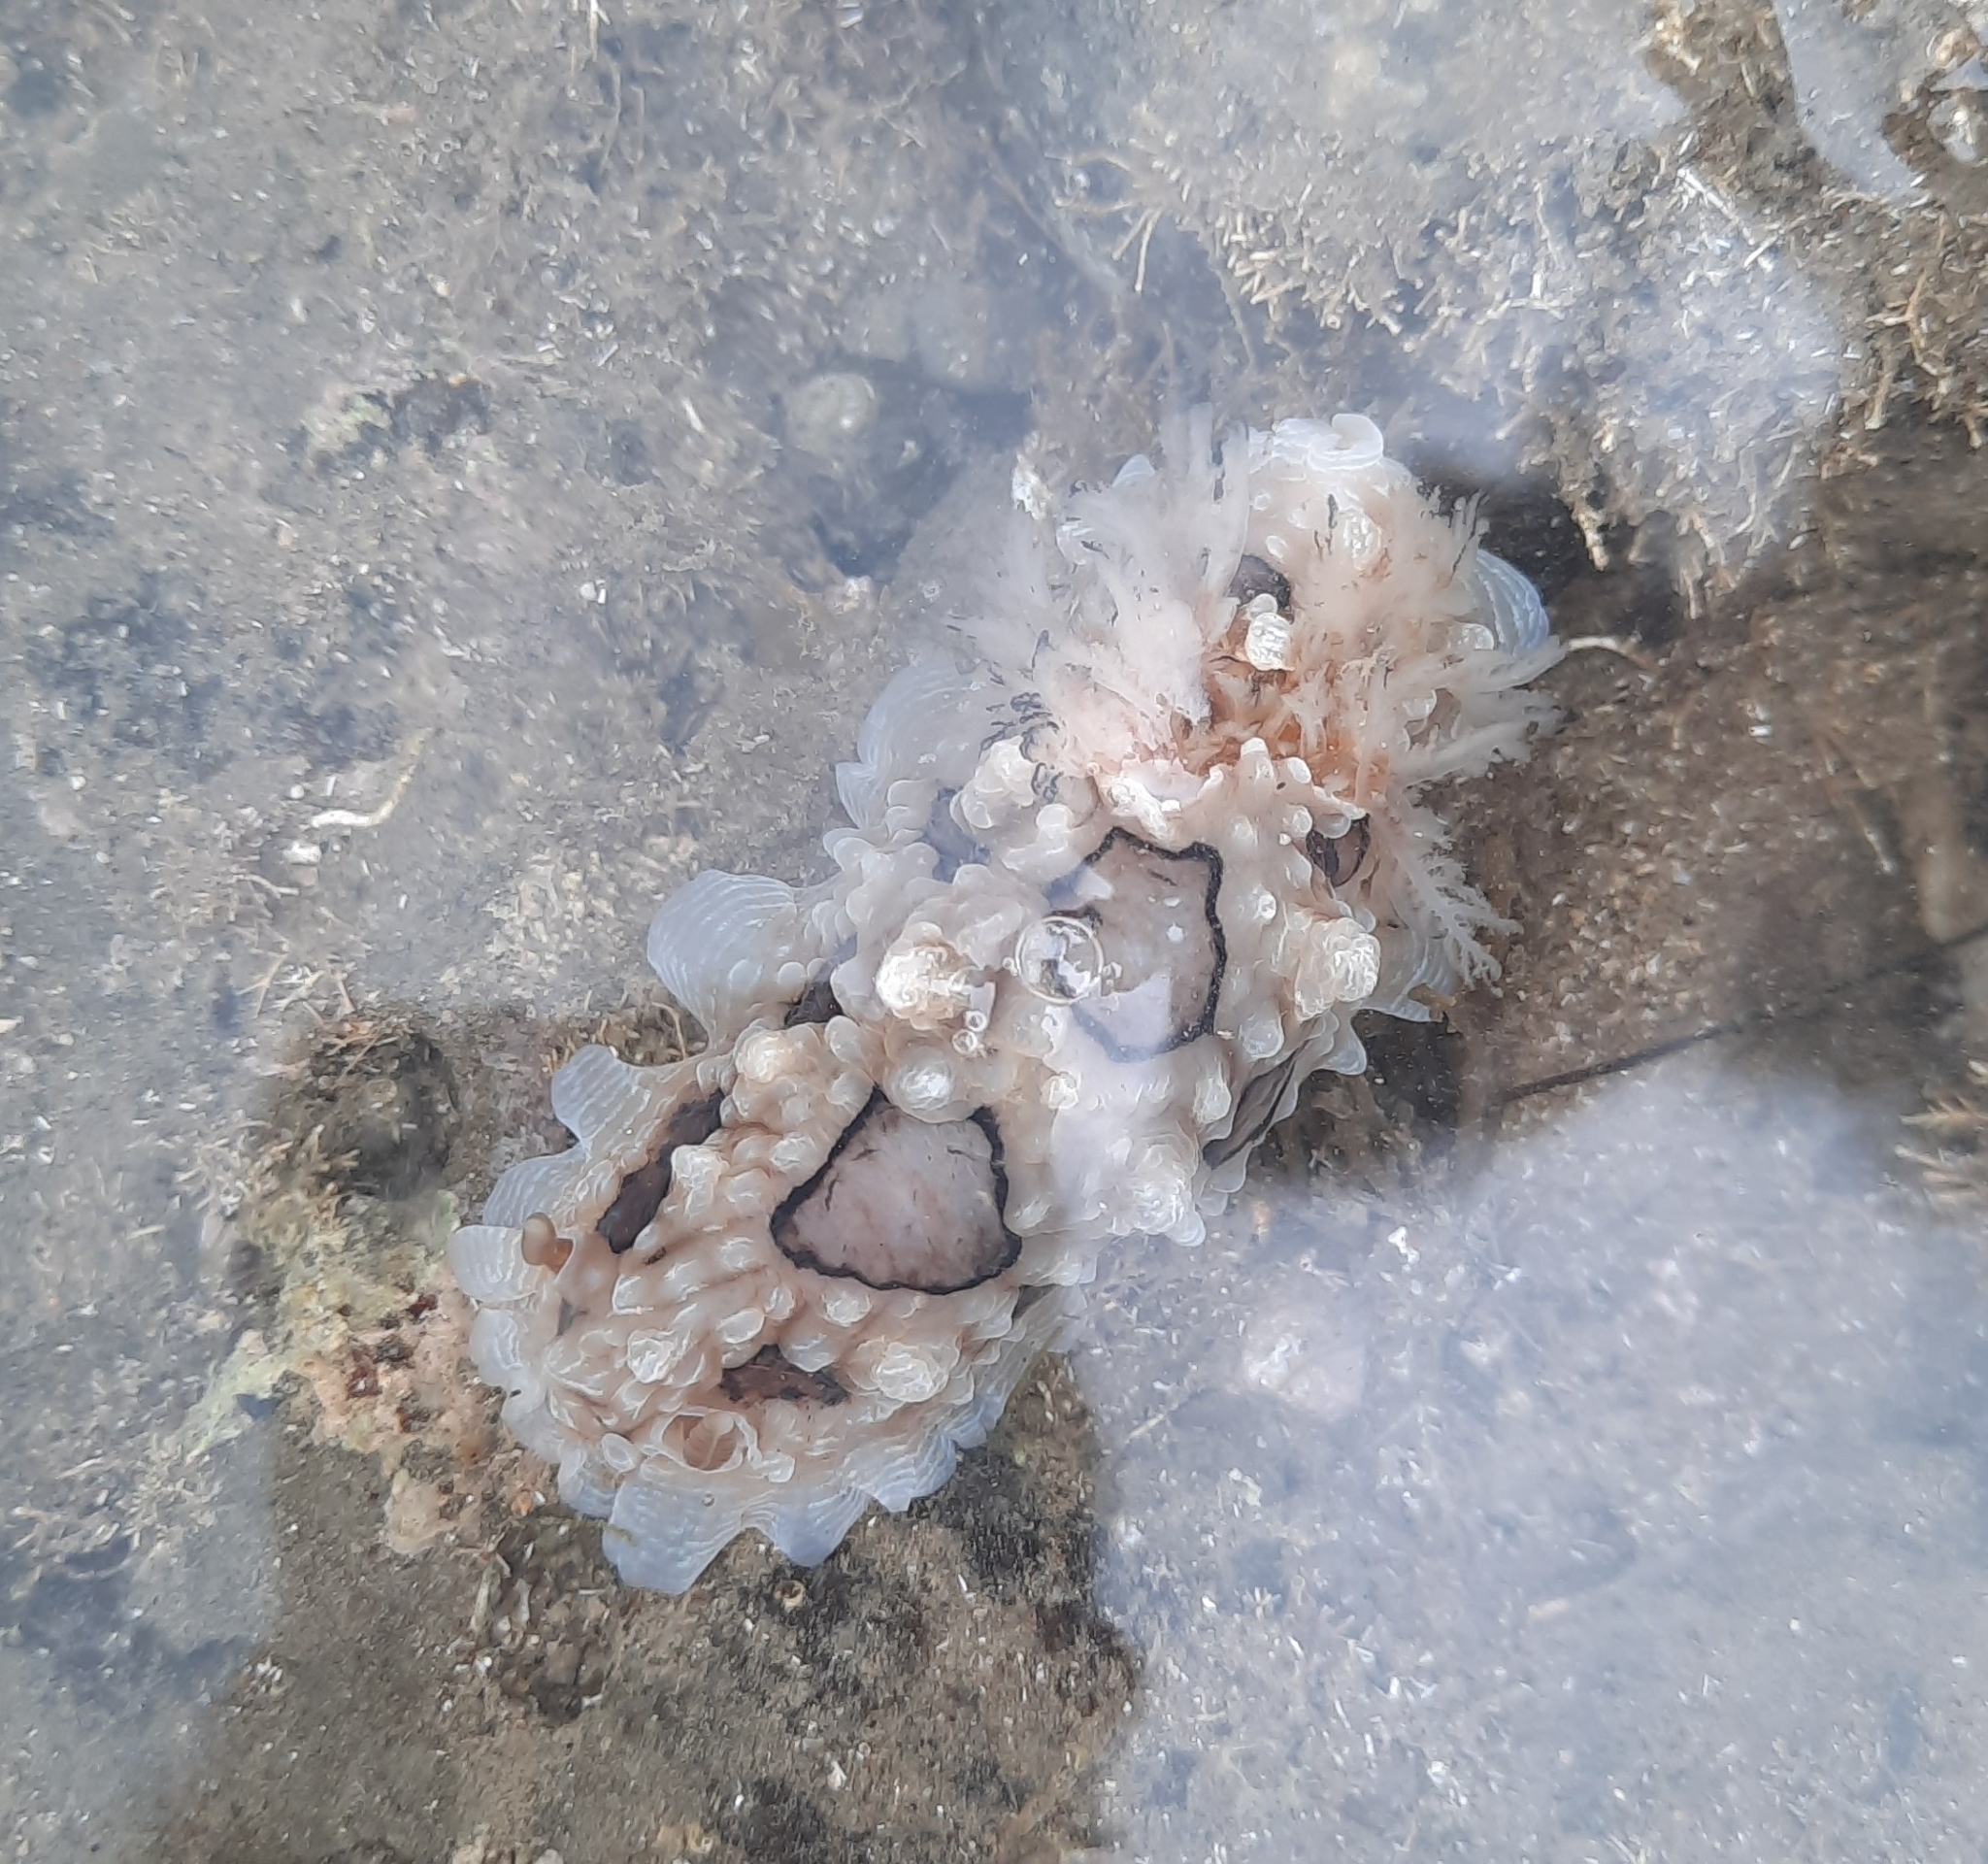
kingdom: Animalia
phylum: Mollusca
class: Gastropoda
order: Nudibranchia
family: Dendrodorididae
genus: Dendrodoris
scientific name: Dendrodoris krusensternii
